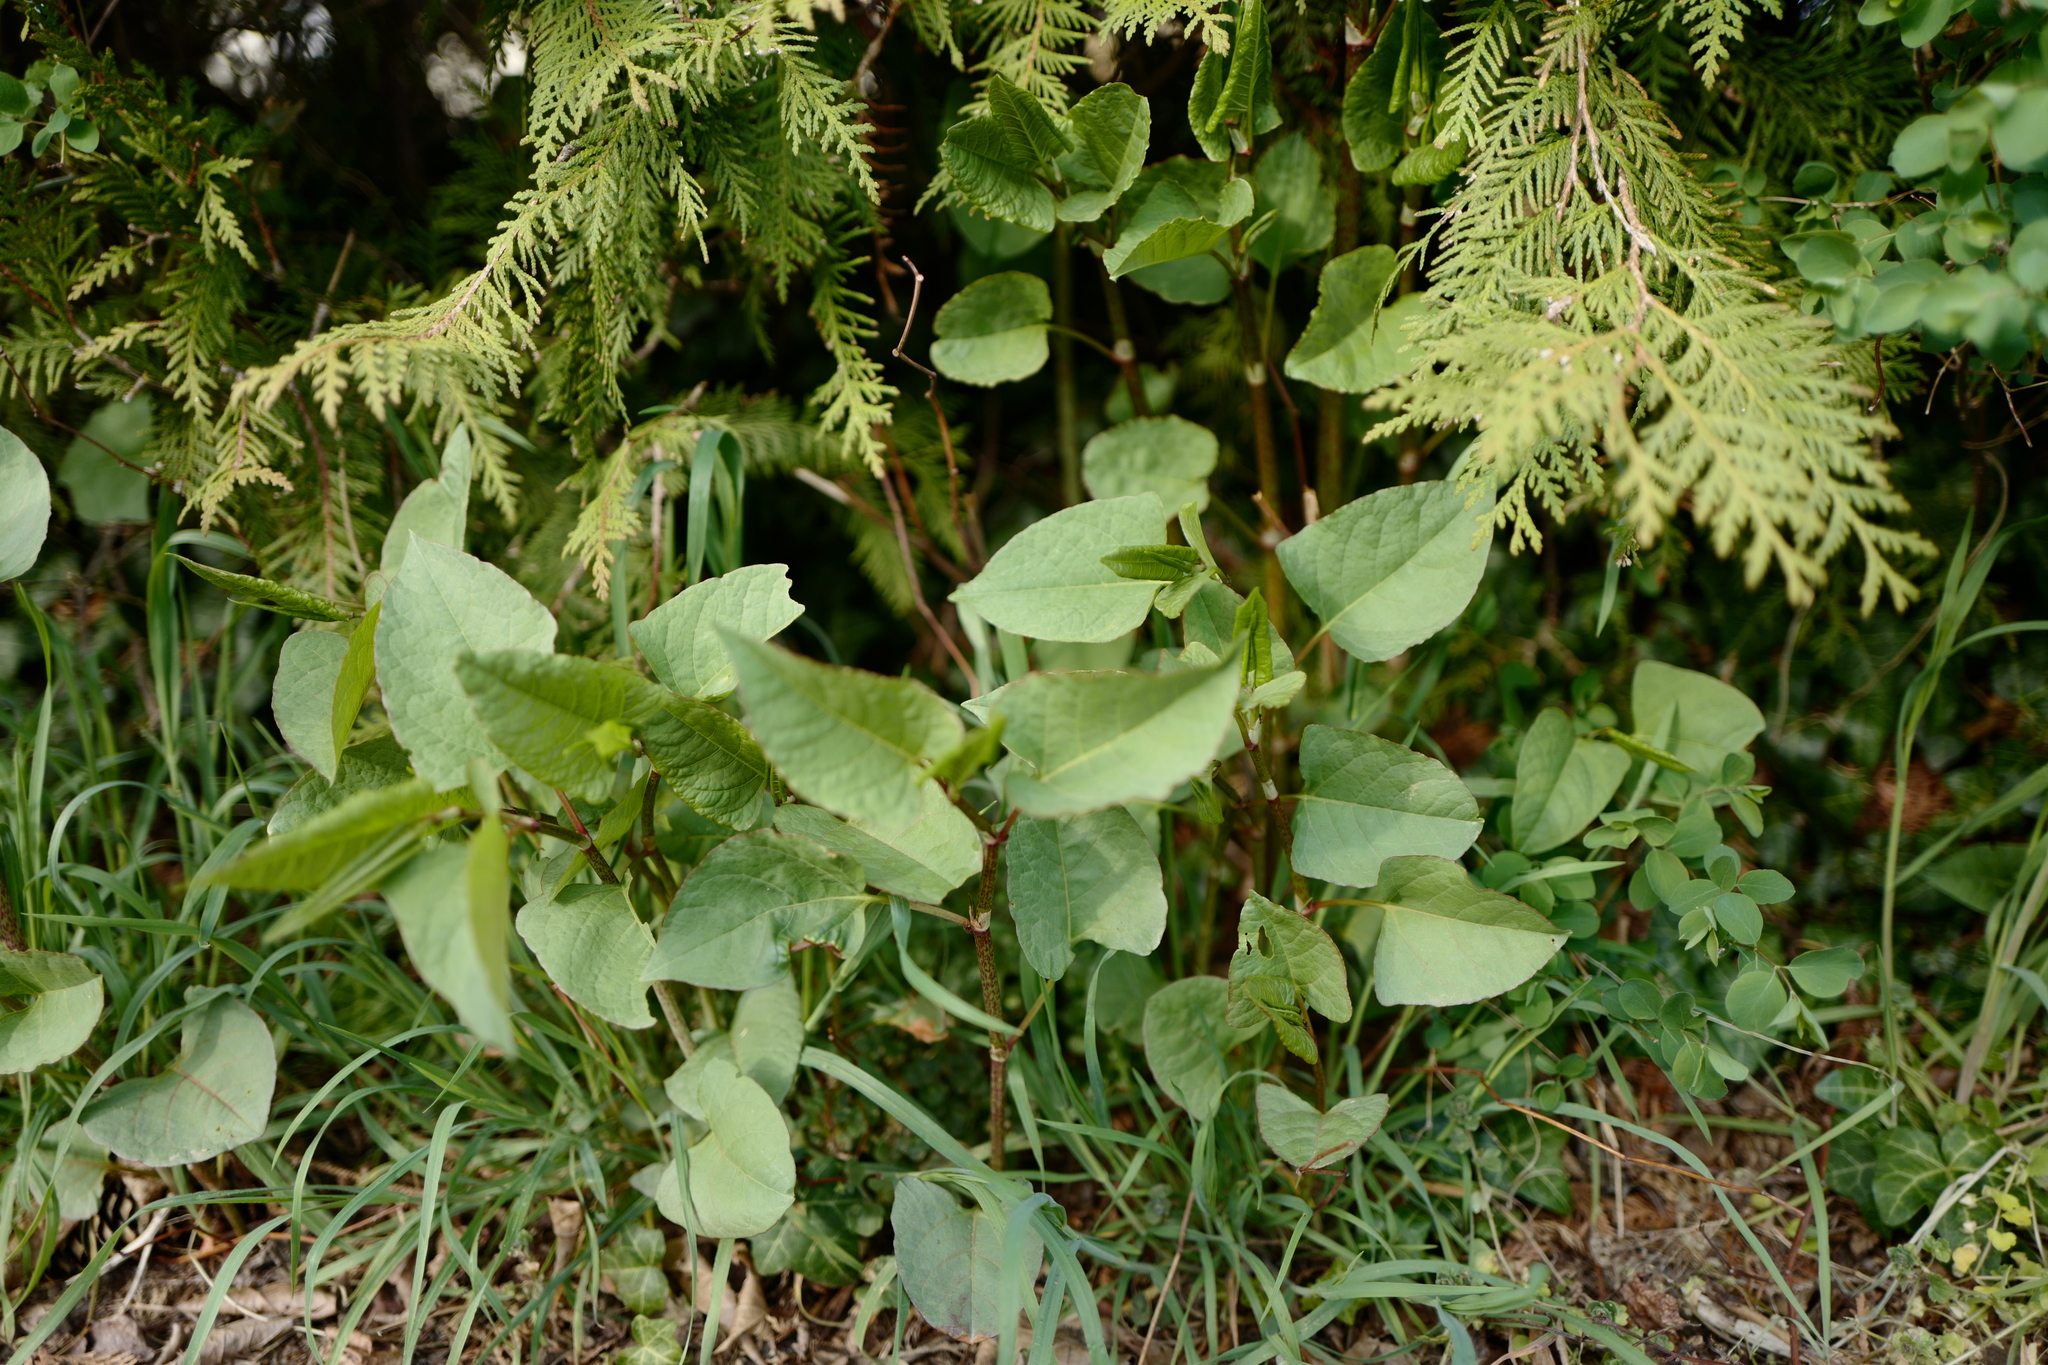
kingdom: Plantae
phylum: Tracheophyta
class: Magnoliopsida
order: Caryophyllales
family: Polygonaceae
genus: Reynoutria
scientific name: Reynoutria bohemica
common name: Bohemian knotweed
